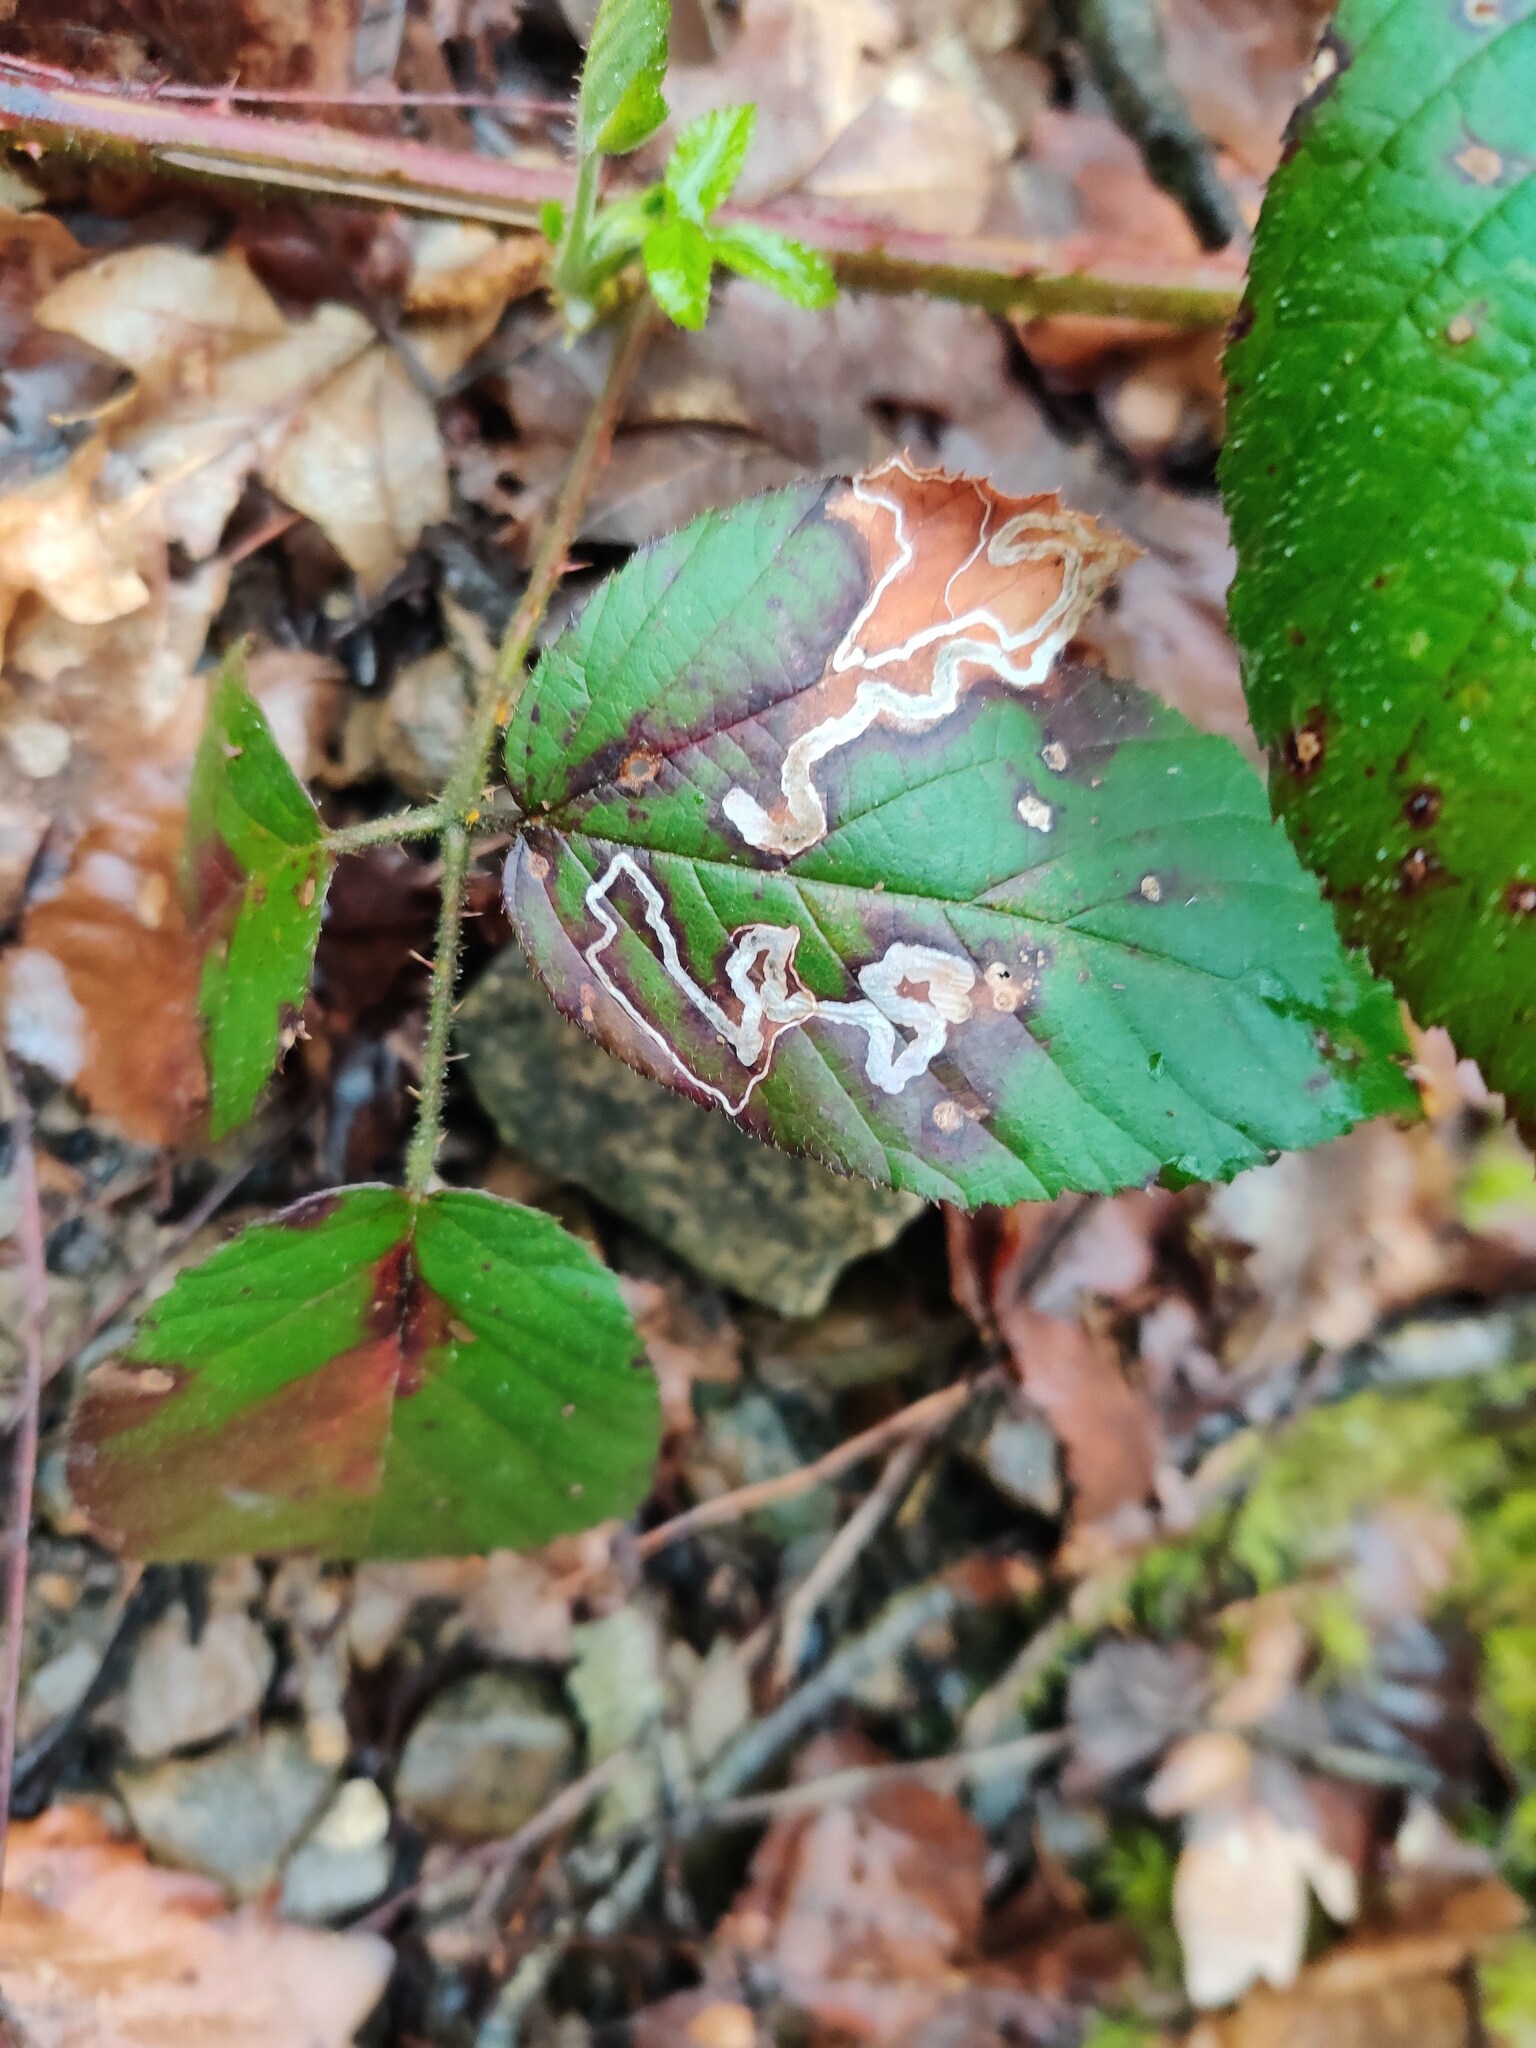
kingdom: Animalia
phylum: Arthropoda
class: Insecta
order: Lepidoptera
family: Nepticulidae
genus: Stigmella
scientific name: Stigmella aurella
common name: Golden pigmy
